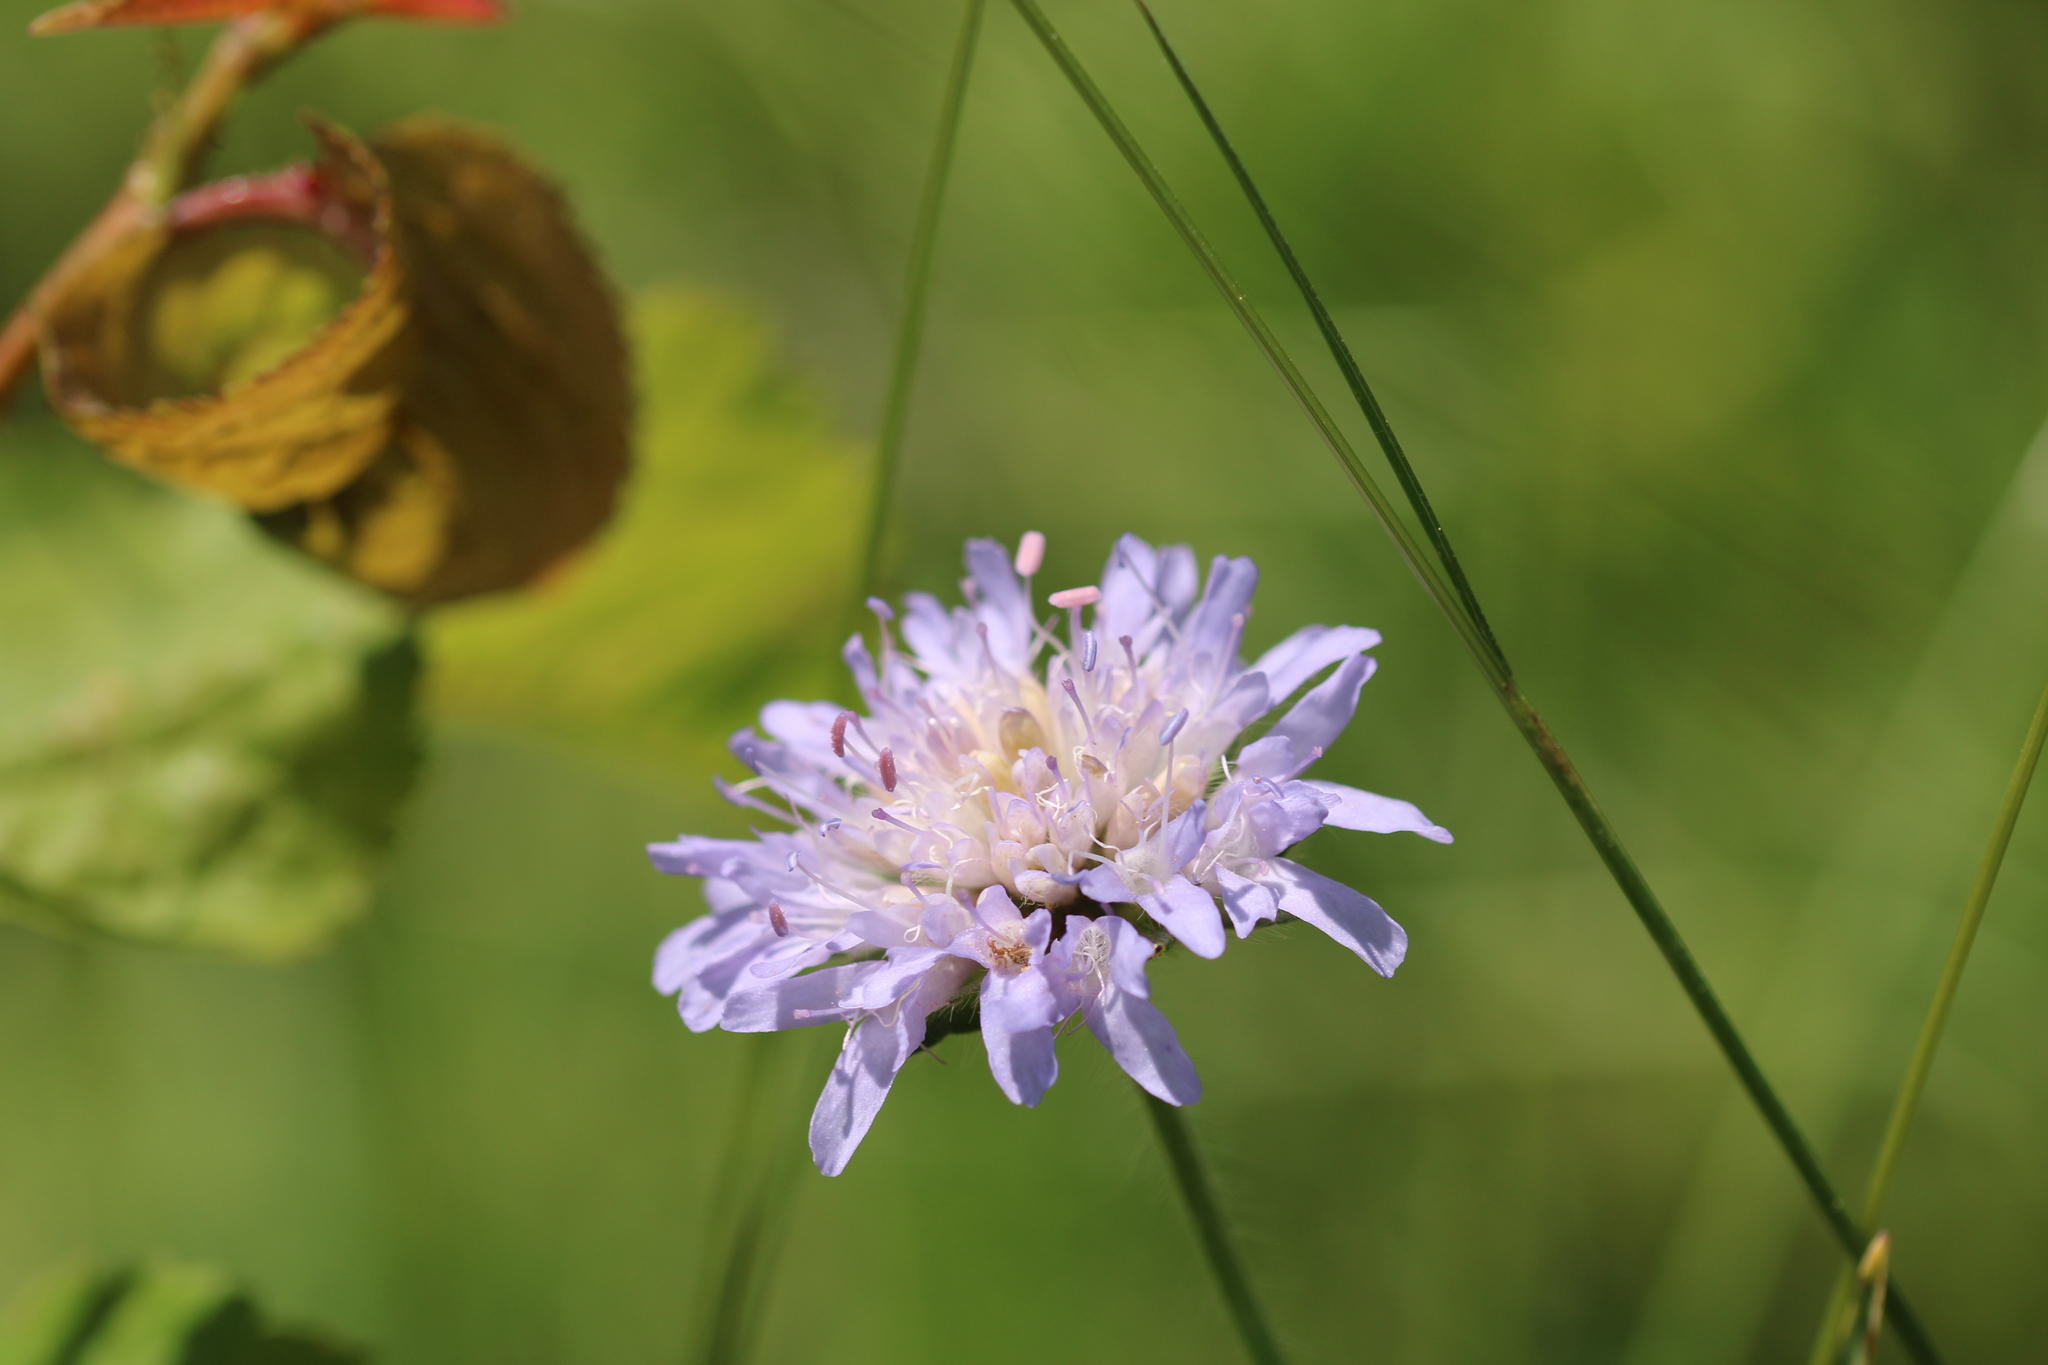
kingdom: Plantae
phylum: Tracheophyta
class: Magnoliopsida
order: Dipsacales
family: Caprifoliaceae
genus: Knautia
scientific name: Knautia arvensis
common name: Field scabiosa
